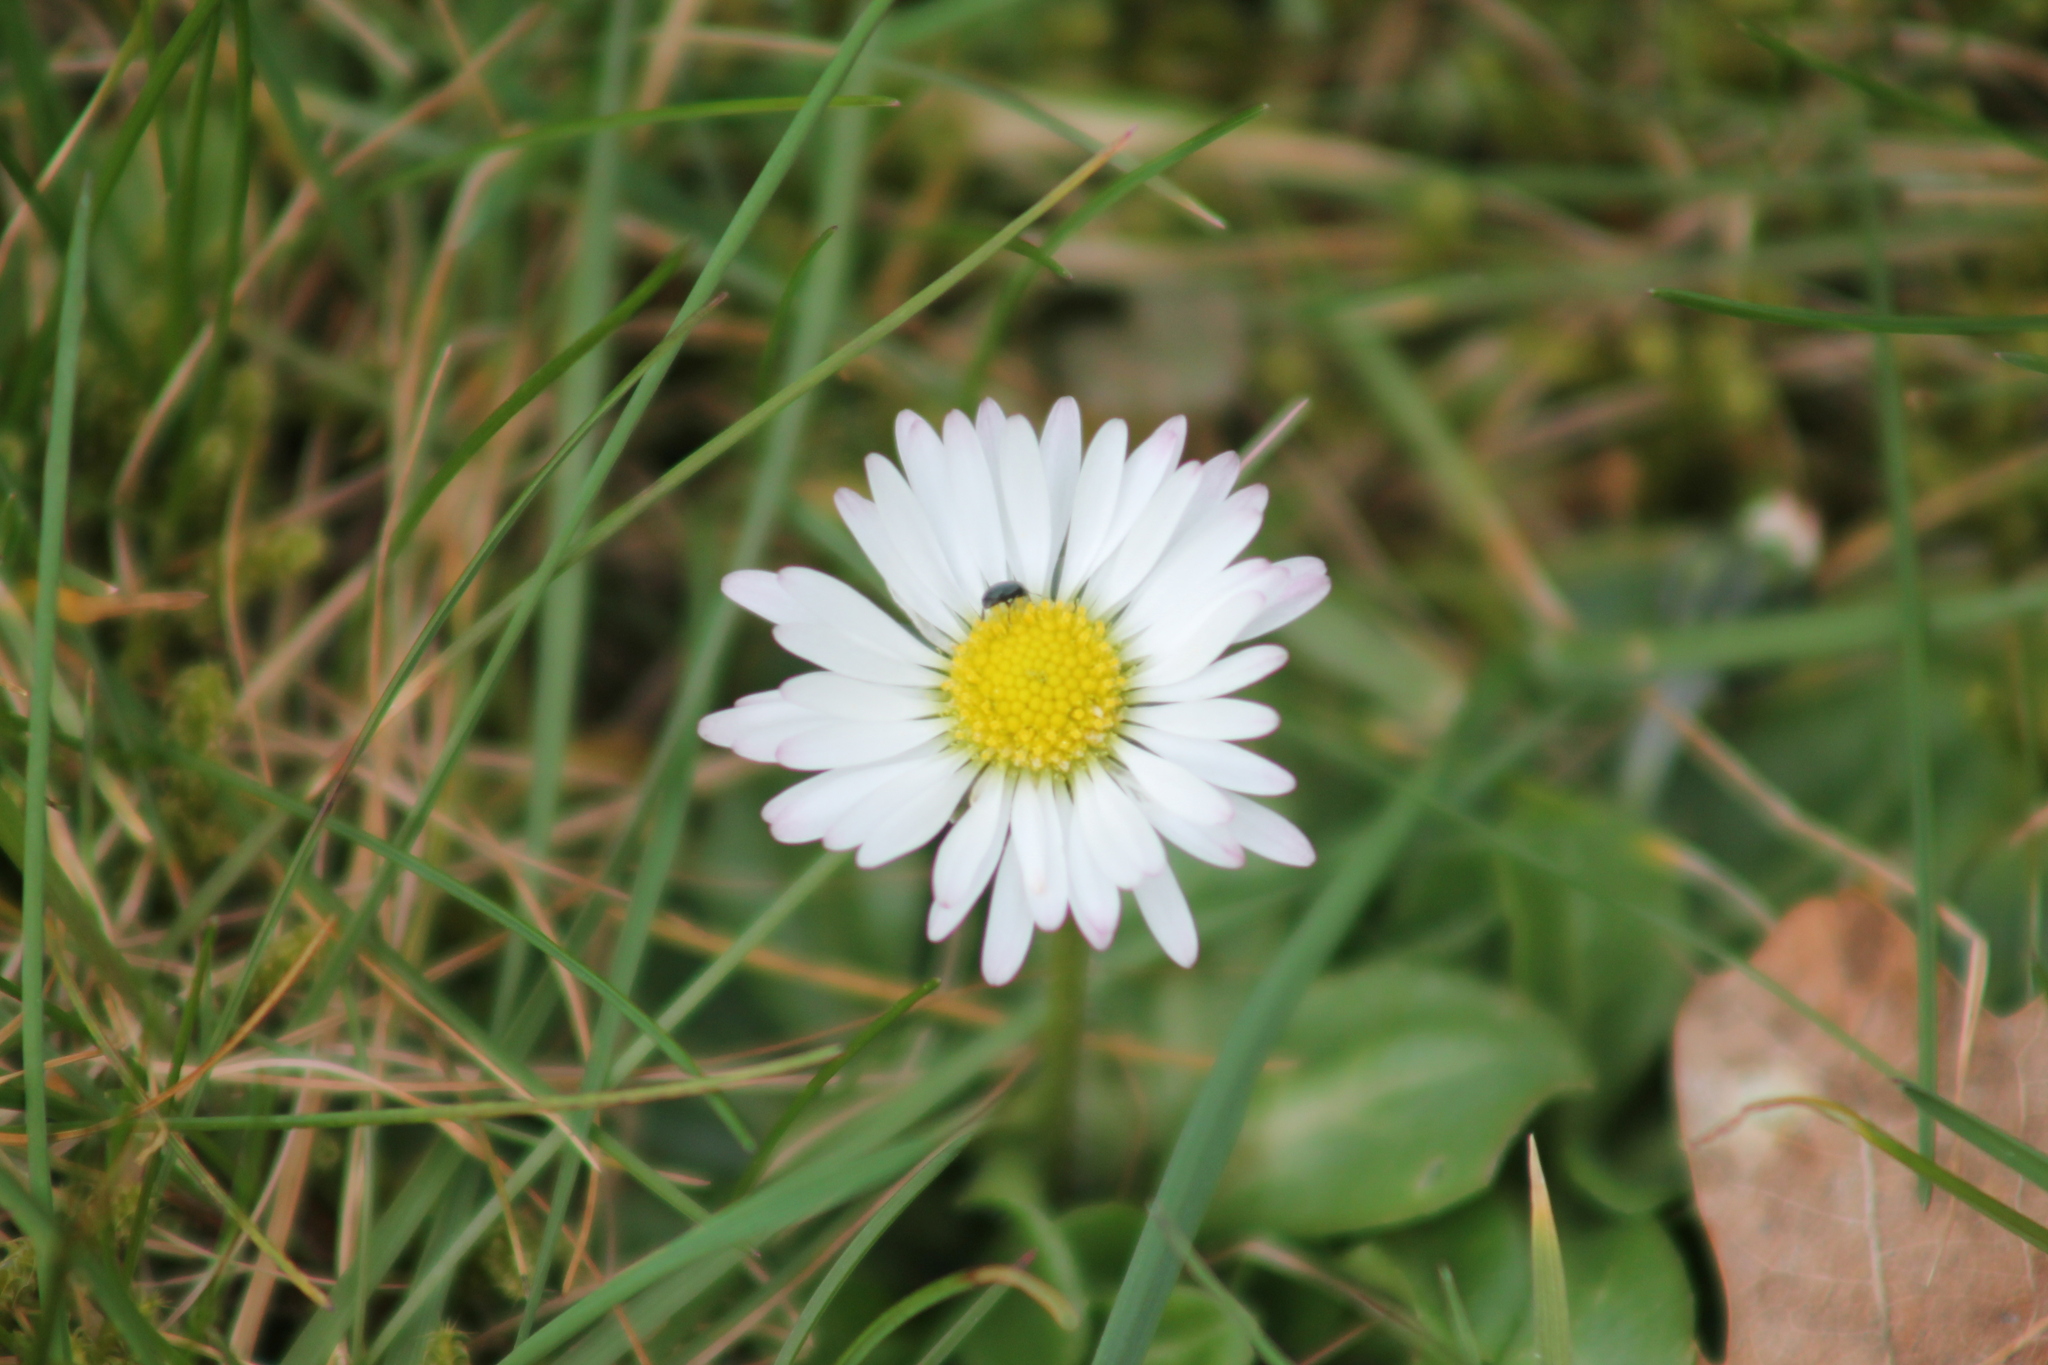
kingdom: Plantae
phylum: Tracheophyta
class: Magnoliopsida
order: Asterales
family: Asteraceae
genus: Bellis
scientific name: Bellis perennis
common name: Lawndaisy
